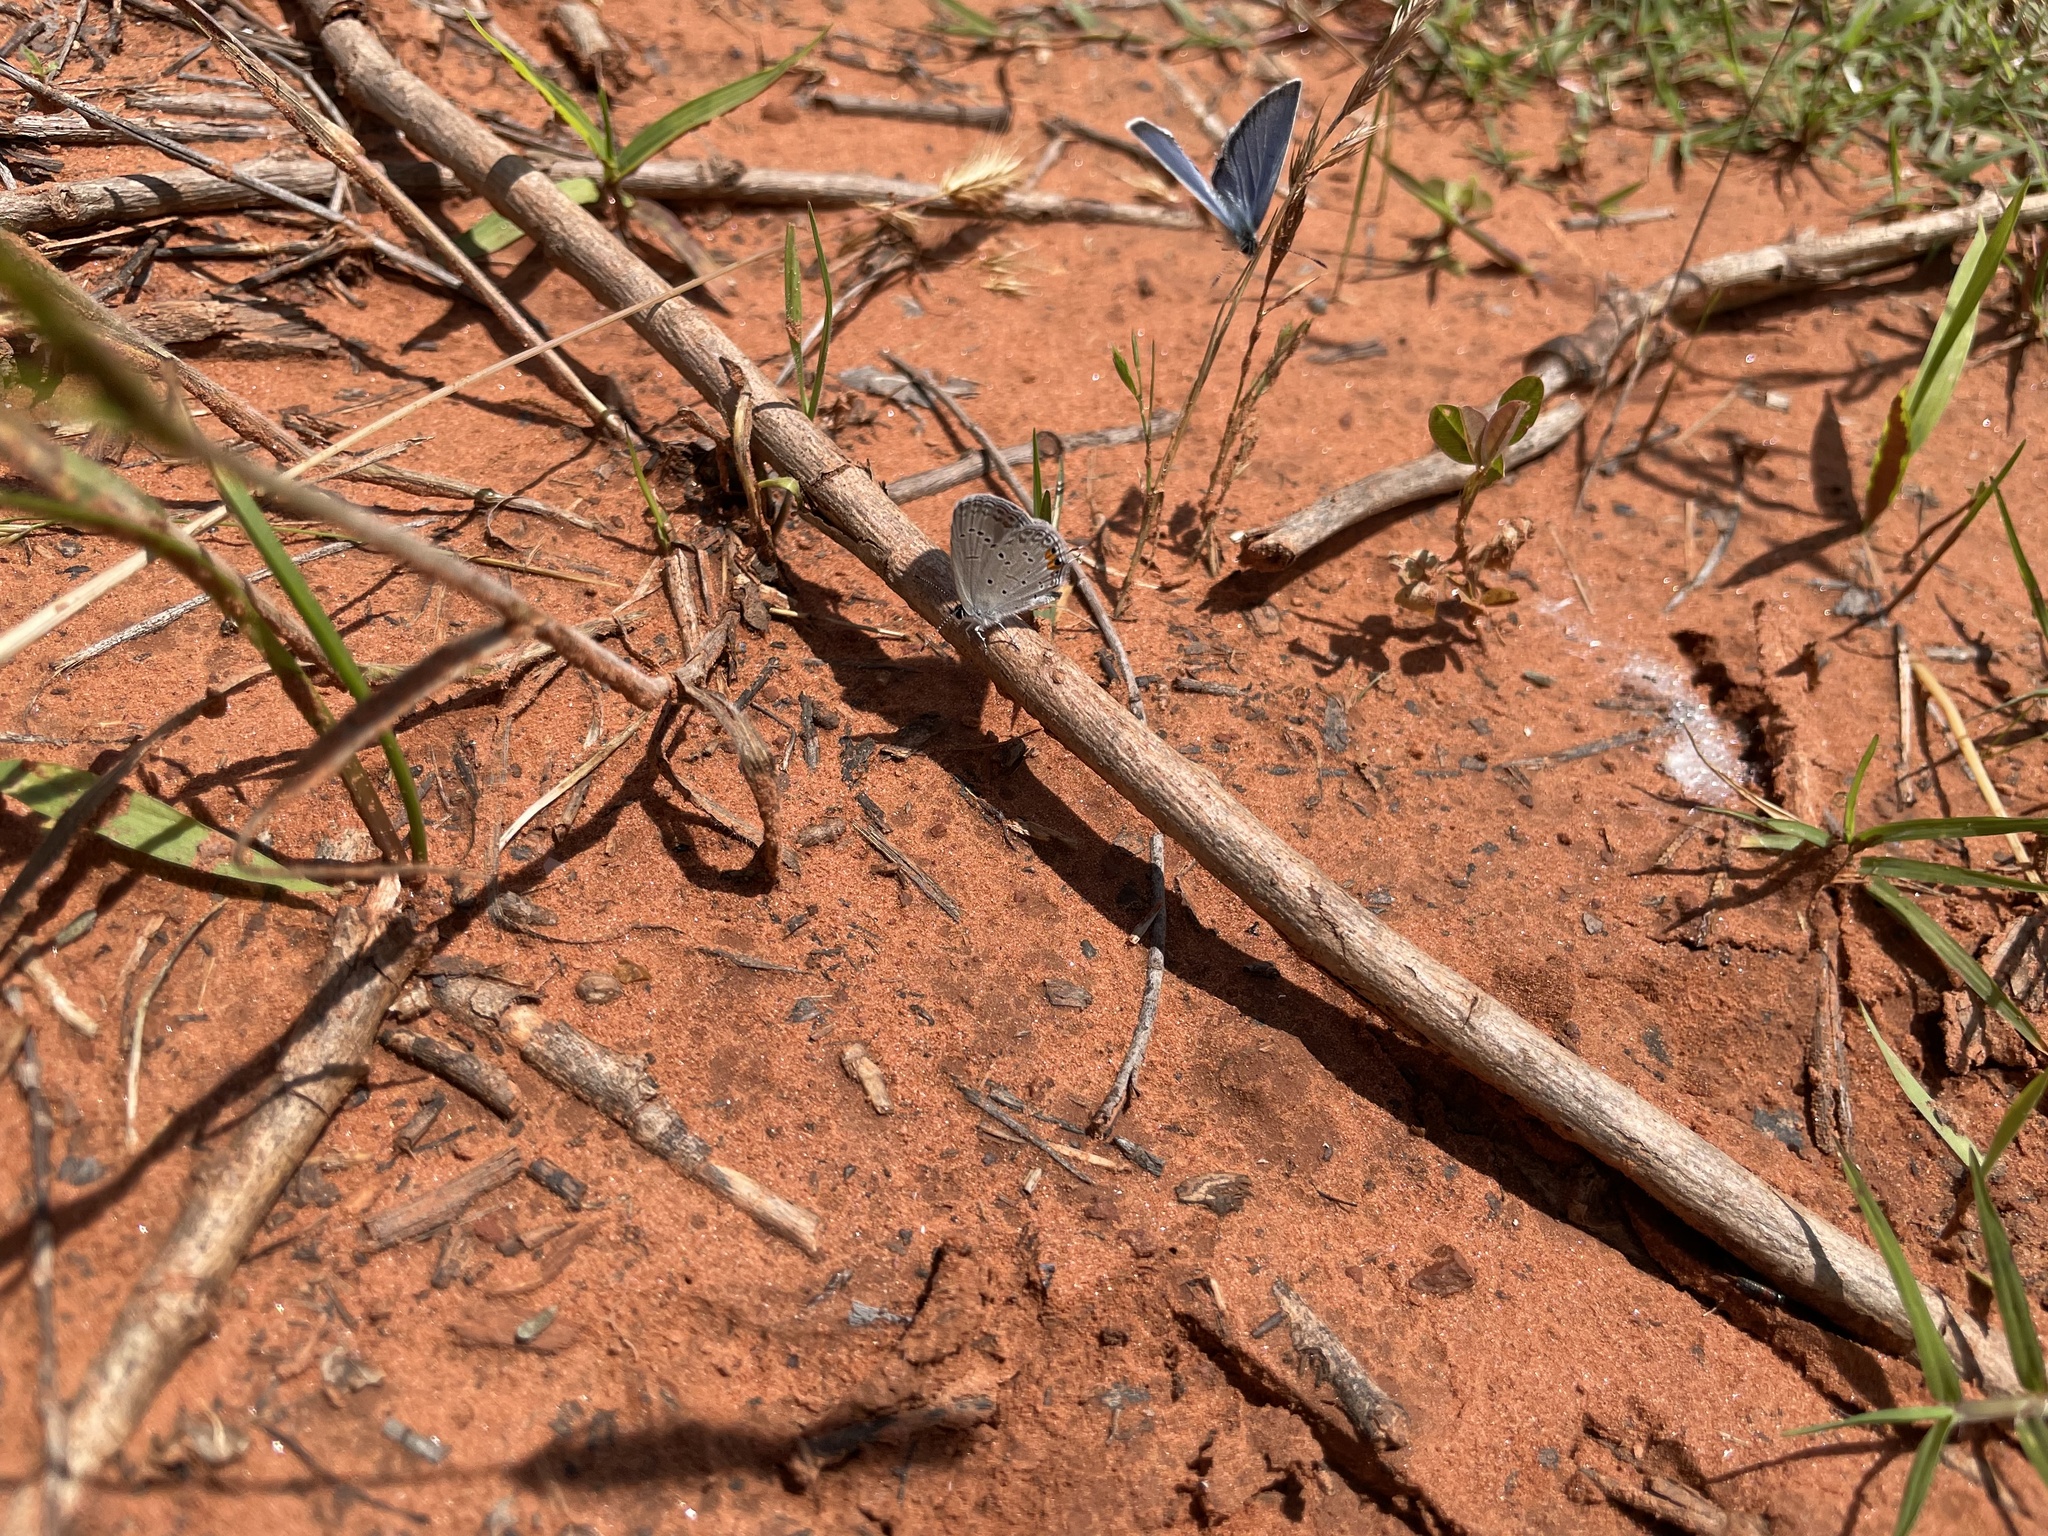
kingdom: Animalia
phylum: Arthropoda
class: Insecta
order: Lepidoptera
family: Lycaenidae
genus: Elkalyce
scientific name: Elkalyce comyntas
